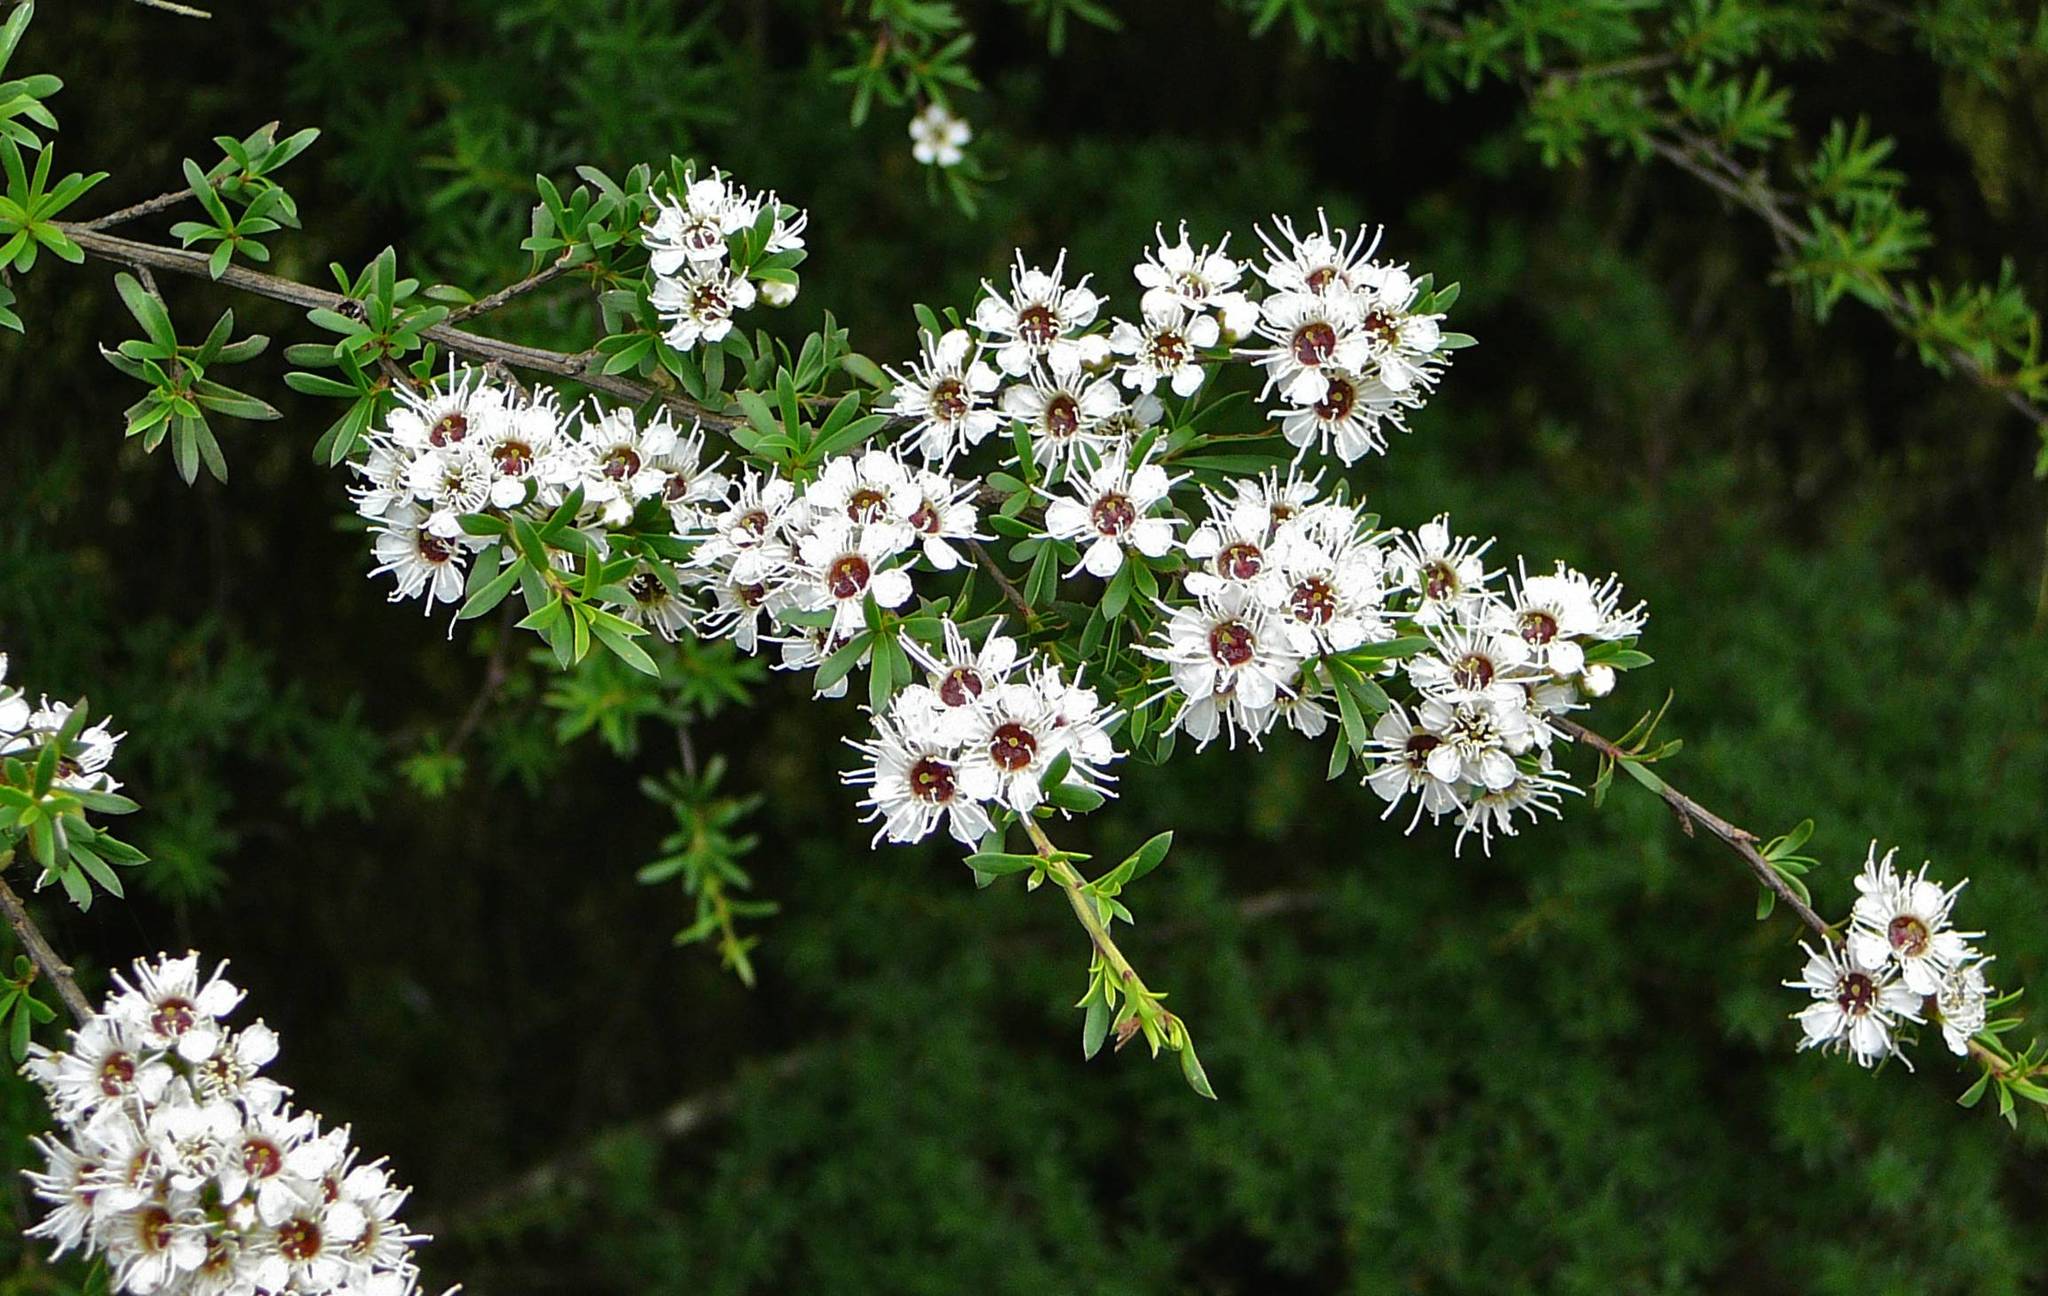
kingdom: Plantae
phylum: Tracheophyta
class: Magnoliopsida
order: Myrtales
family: Myrtaceae
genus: Leptospermum
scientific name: Leptospermum scoparium
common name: Broom tea-tree
